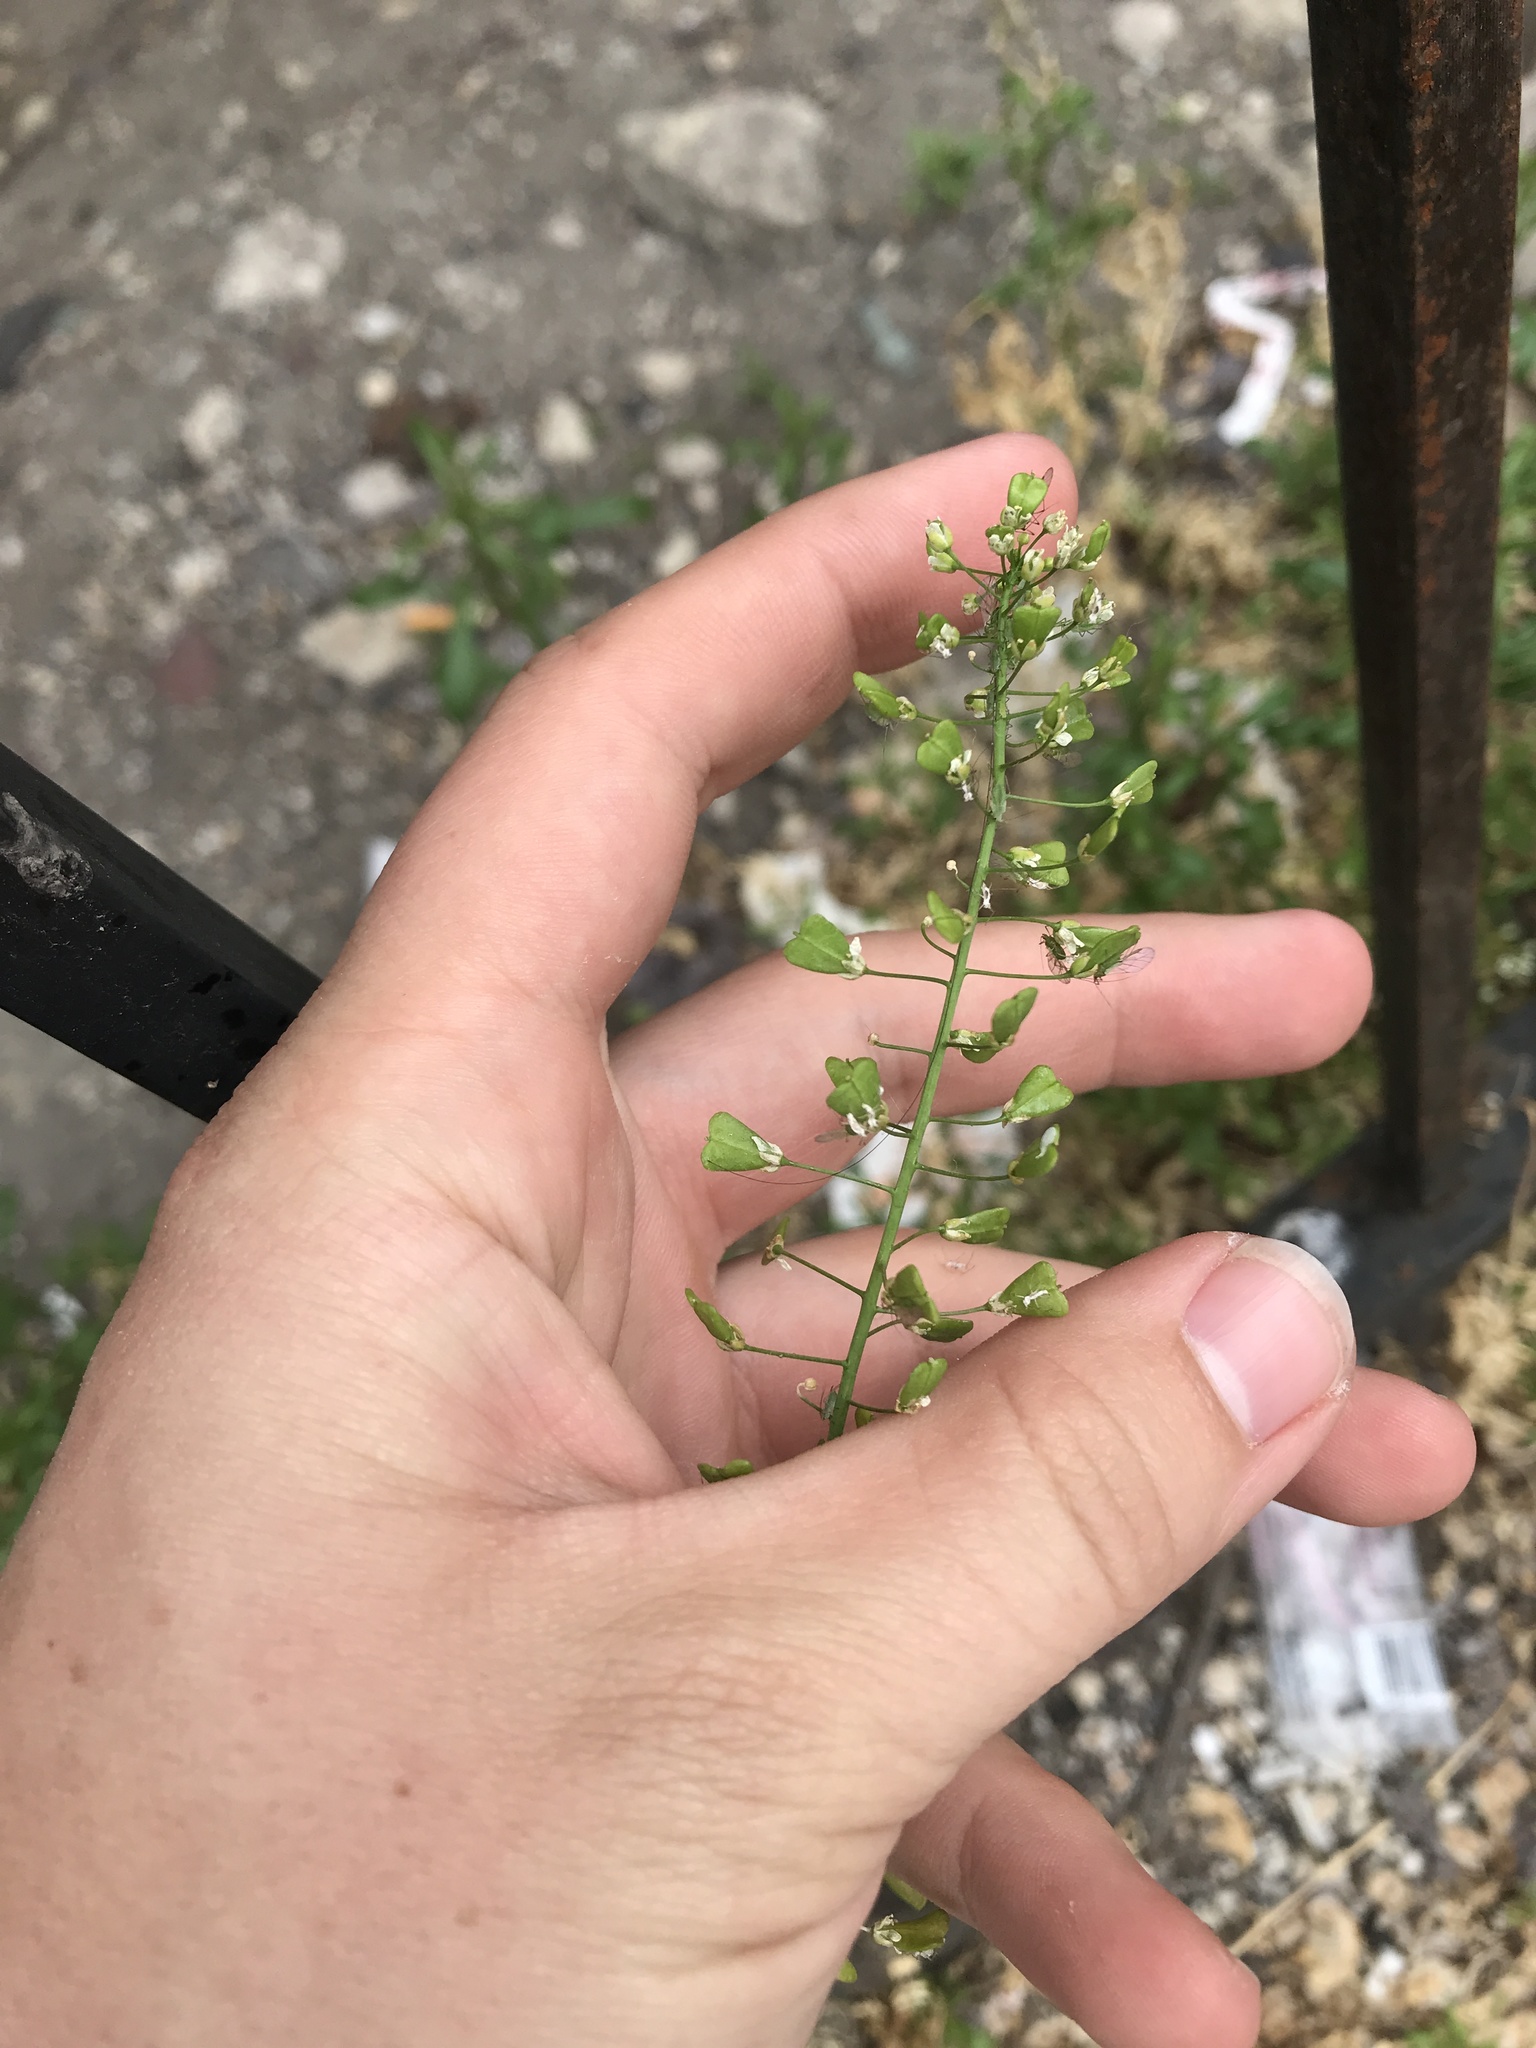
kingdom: Plantae
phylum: Tracheophyta
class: Magnoliopsida
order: Brassicales
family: Brassicaceae
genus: Capsella
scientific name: Capsella bursa-pastoris
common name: Shepherd's purse
